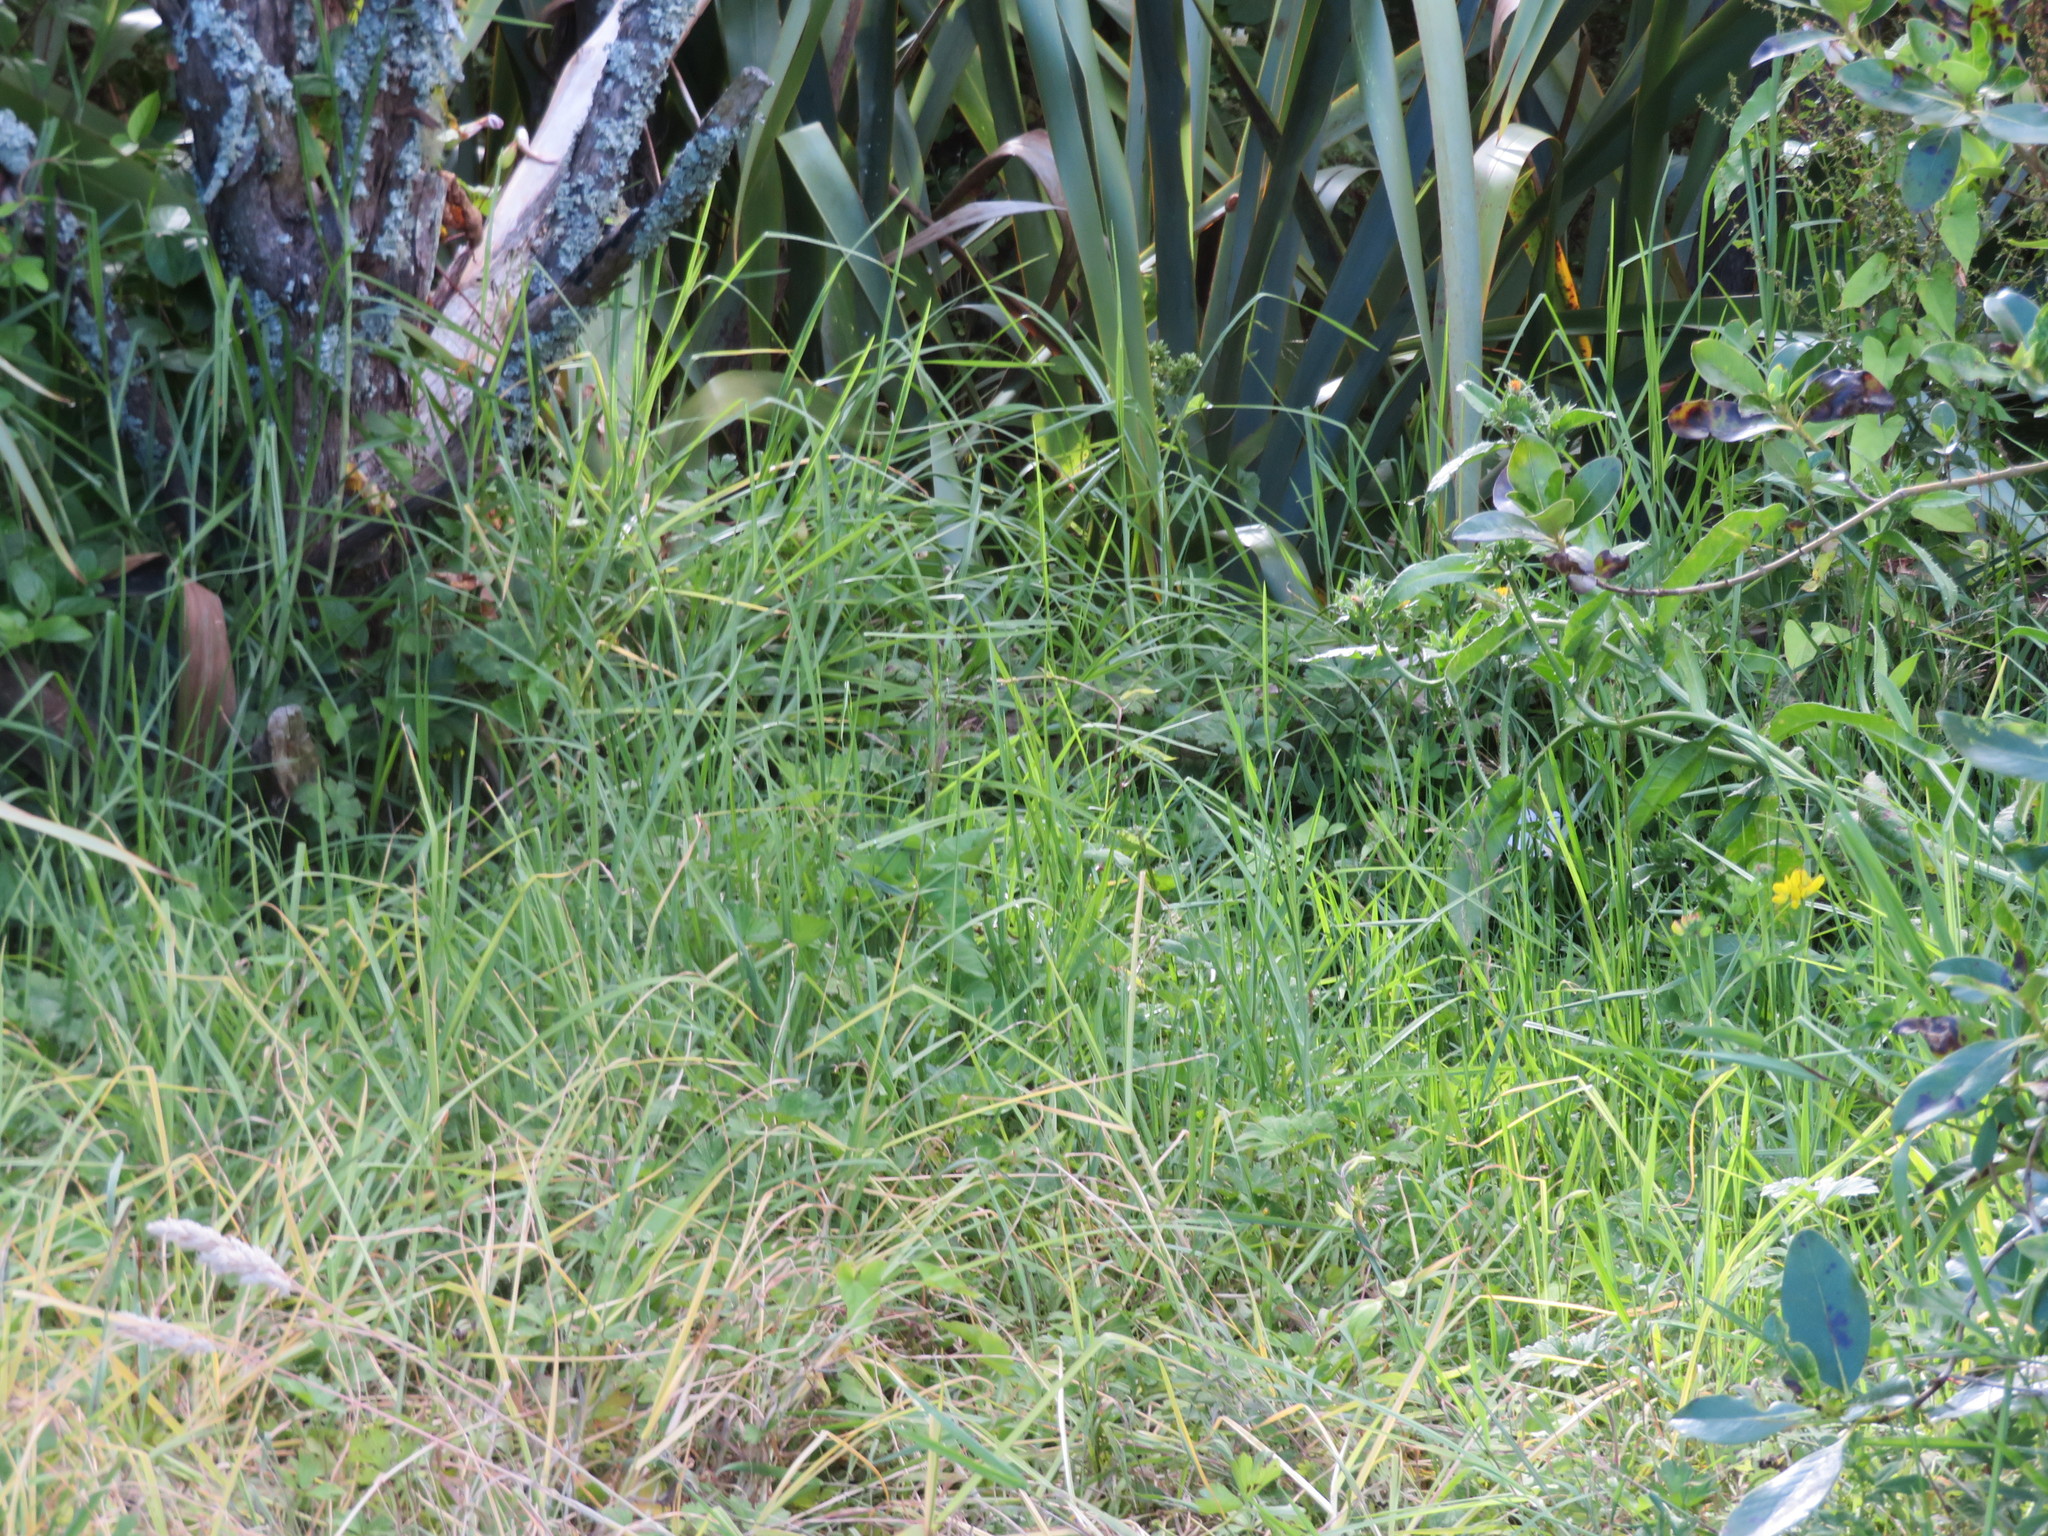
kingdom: Plantae
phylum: Tracheophyta
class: Liliopsida
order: Poales
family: Poaceae
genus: Cenchrus
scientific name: Cenchrus clandestinus
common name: Kikuyugrass
